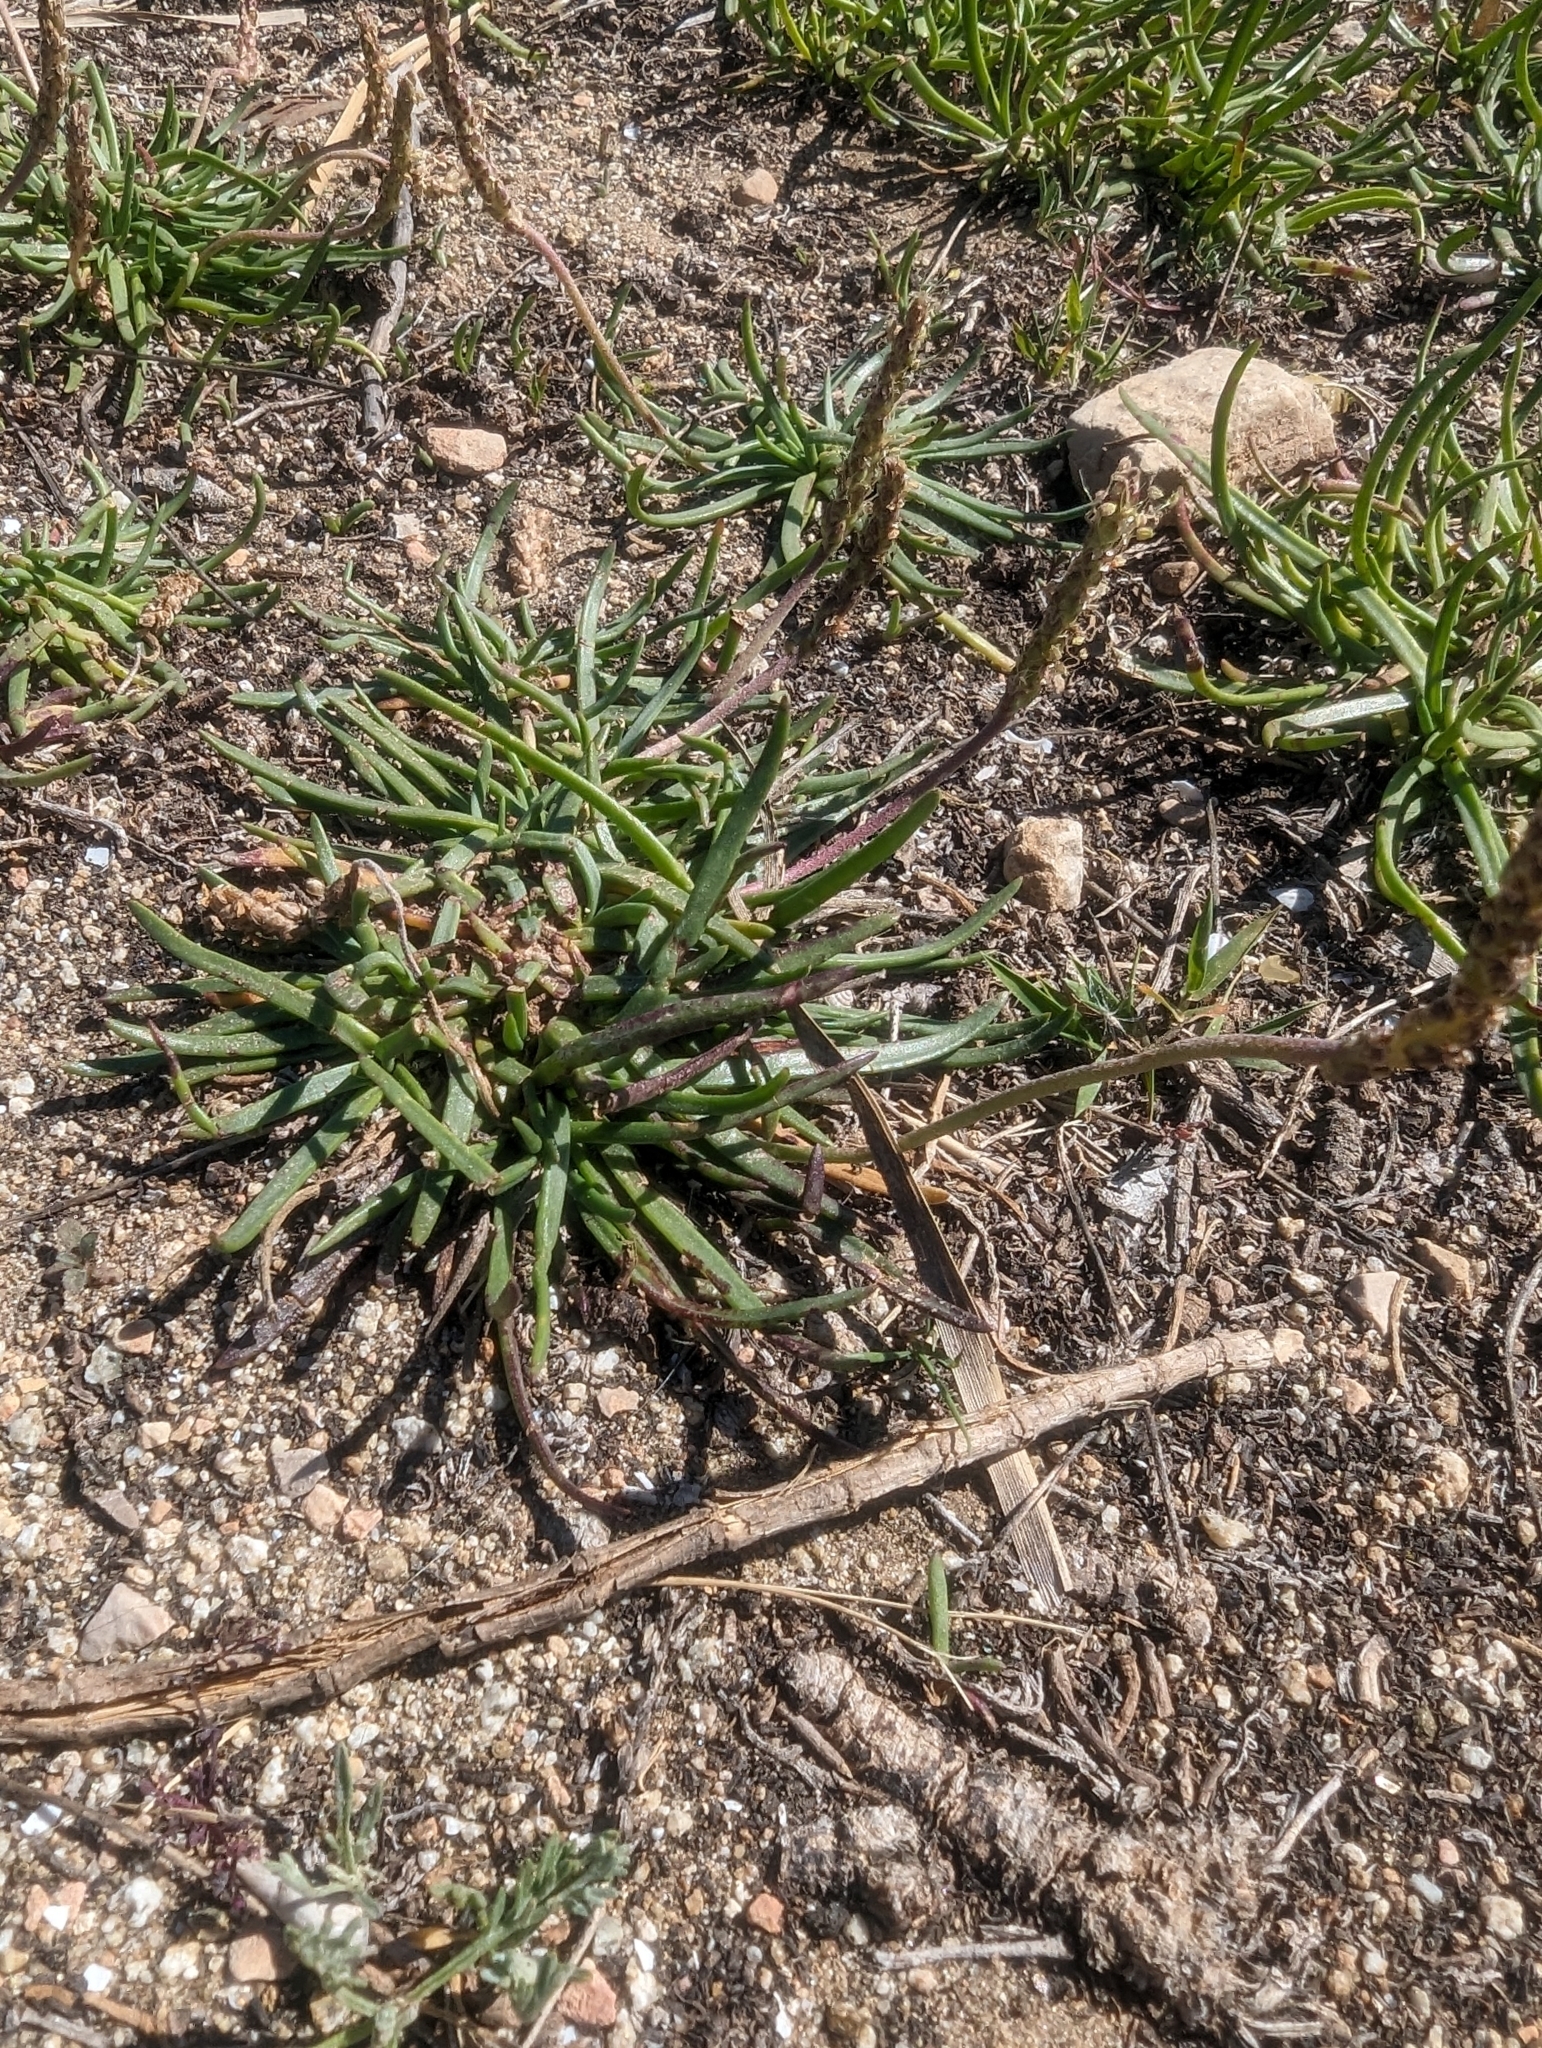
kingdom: Plantae
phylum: Tracheophyta
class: Magnoliopsida
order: Lamiales
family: Plantaginaceae
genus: Plantago
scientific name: Plantago crassifolia
